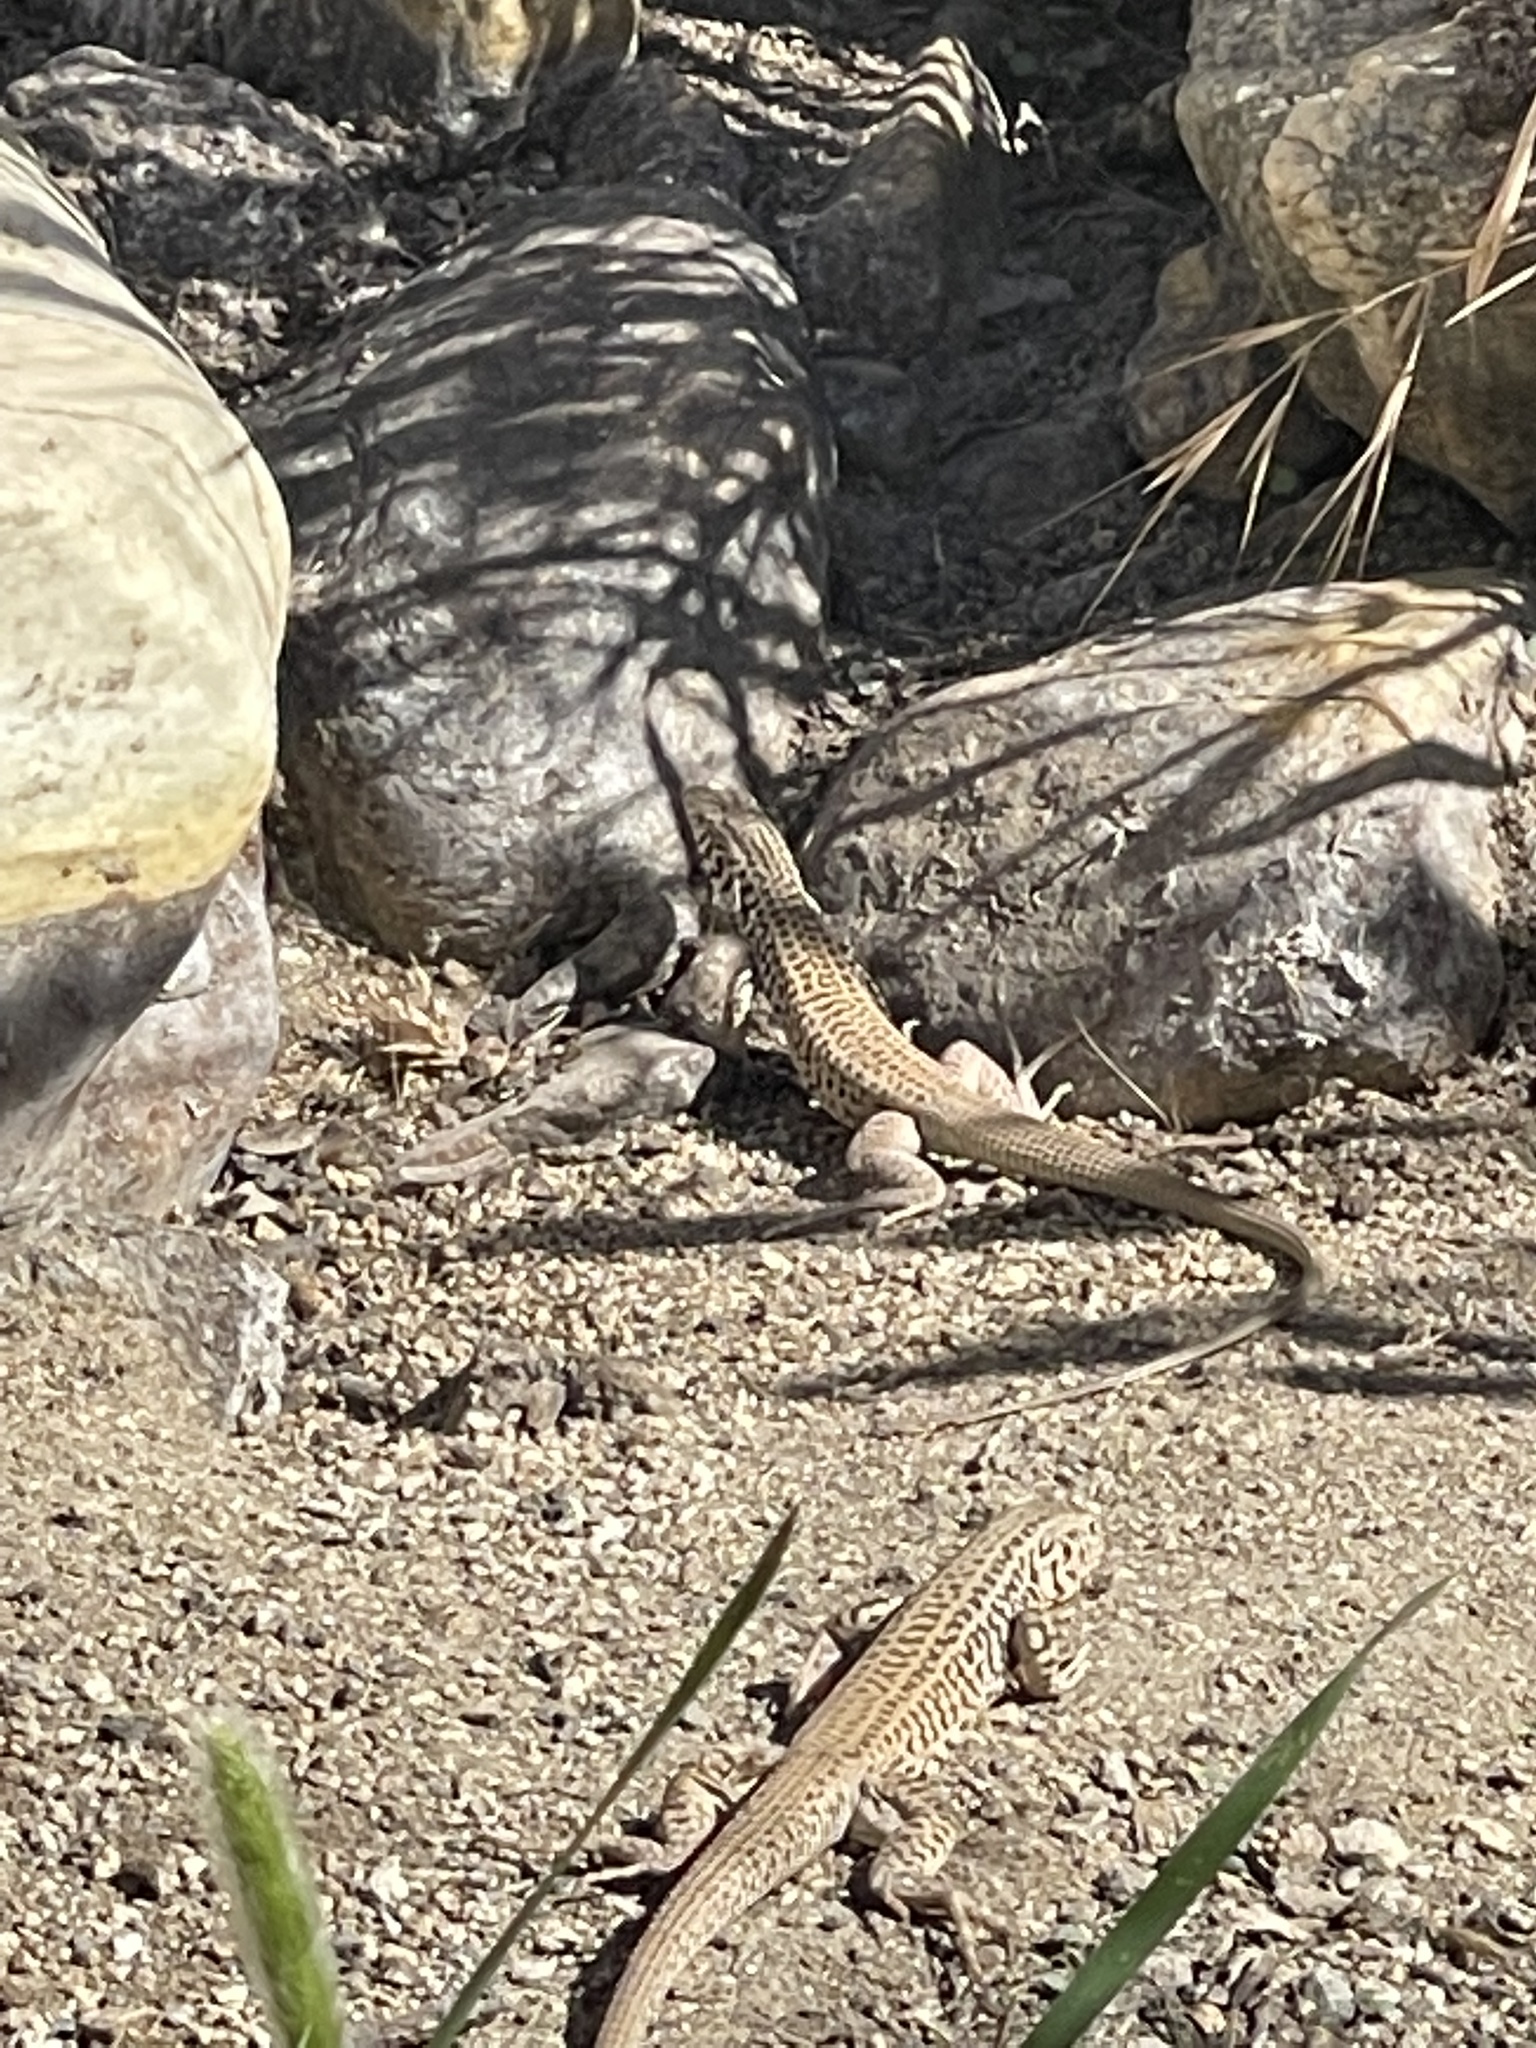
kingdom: Animalia
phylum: Chordata
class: Squamata
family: Teiidae
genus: Aspidoscelis
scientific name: Aspidoscelis tigris
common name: Tiger whiptail
